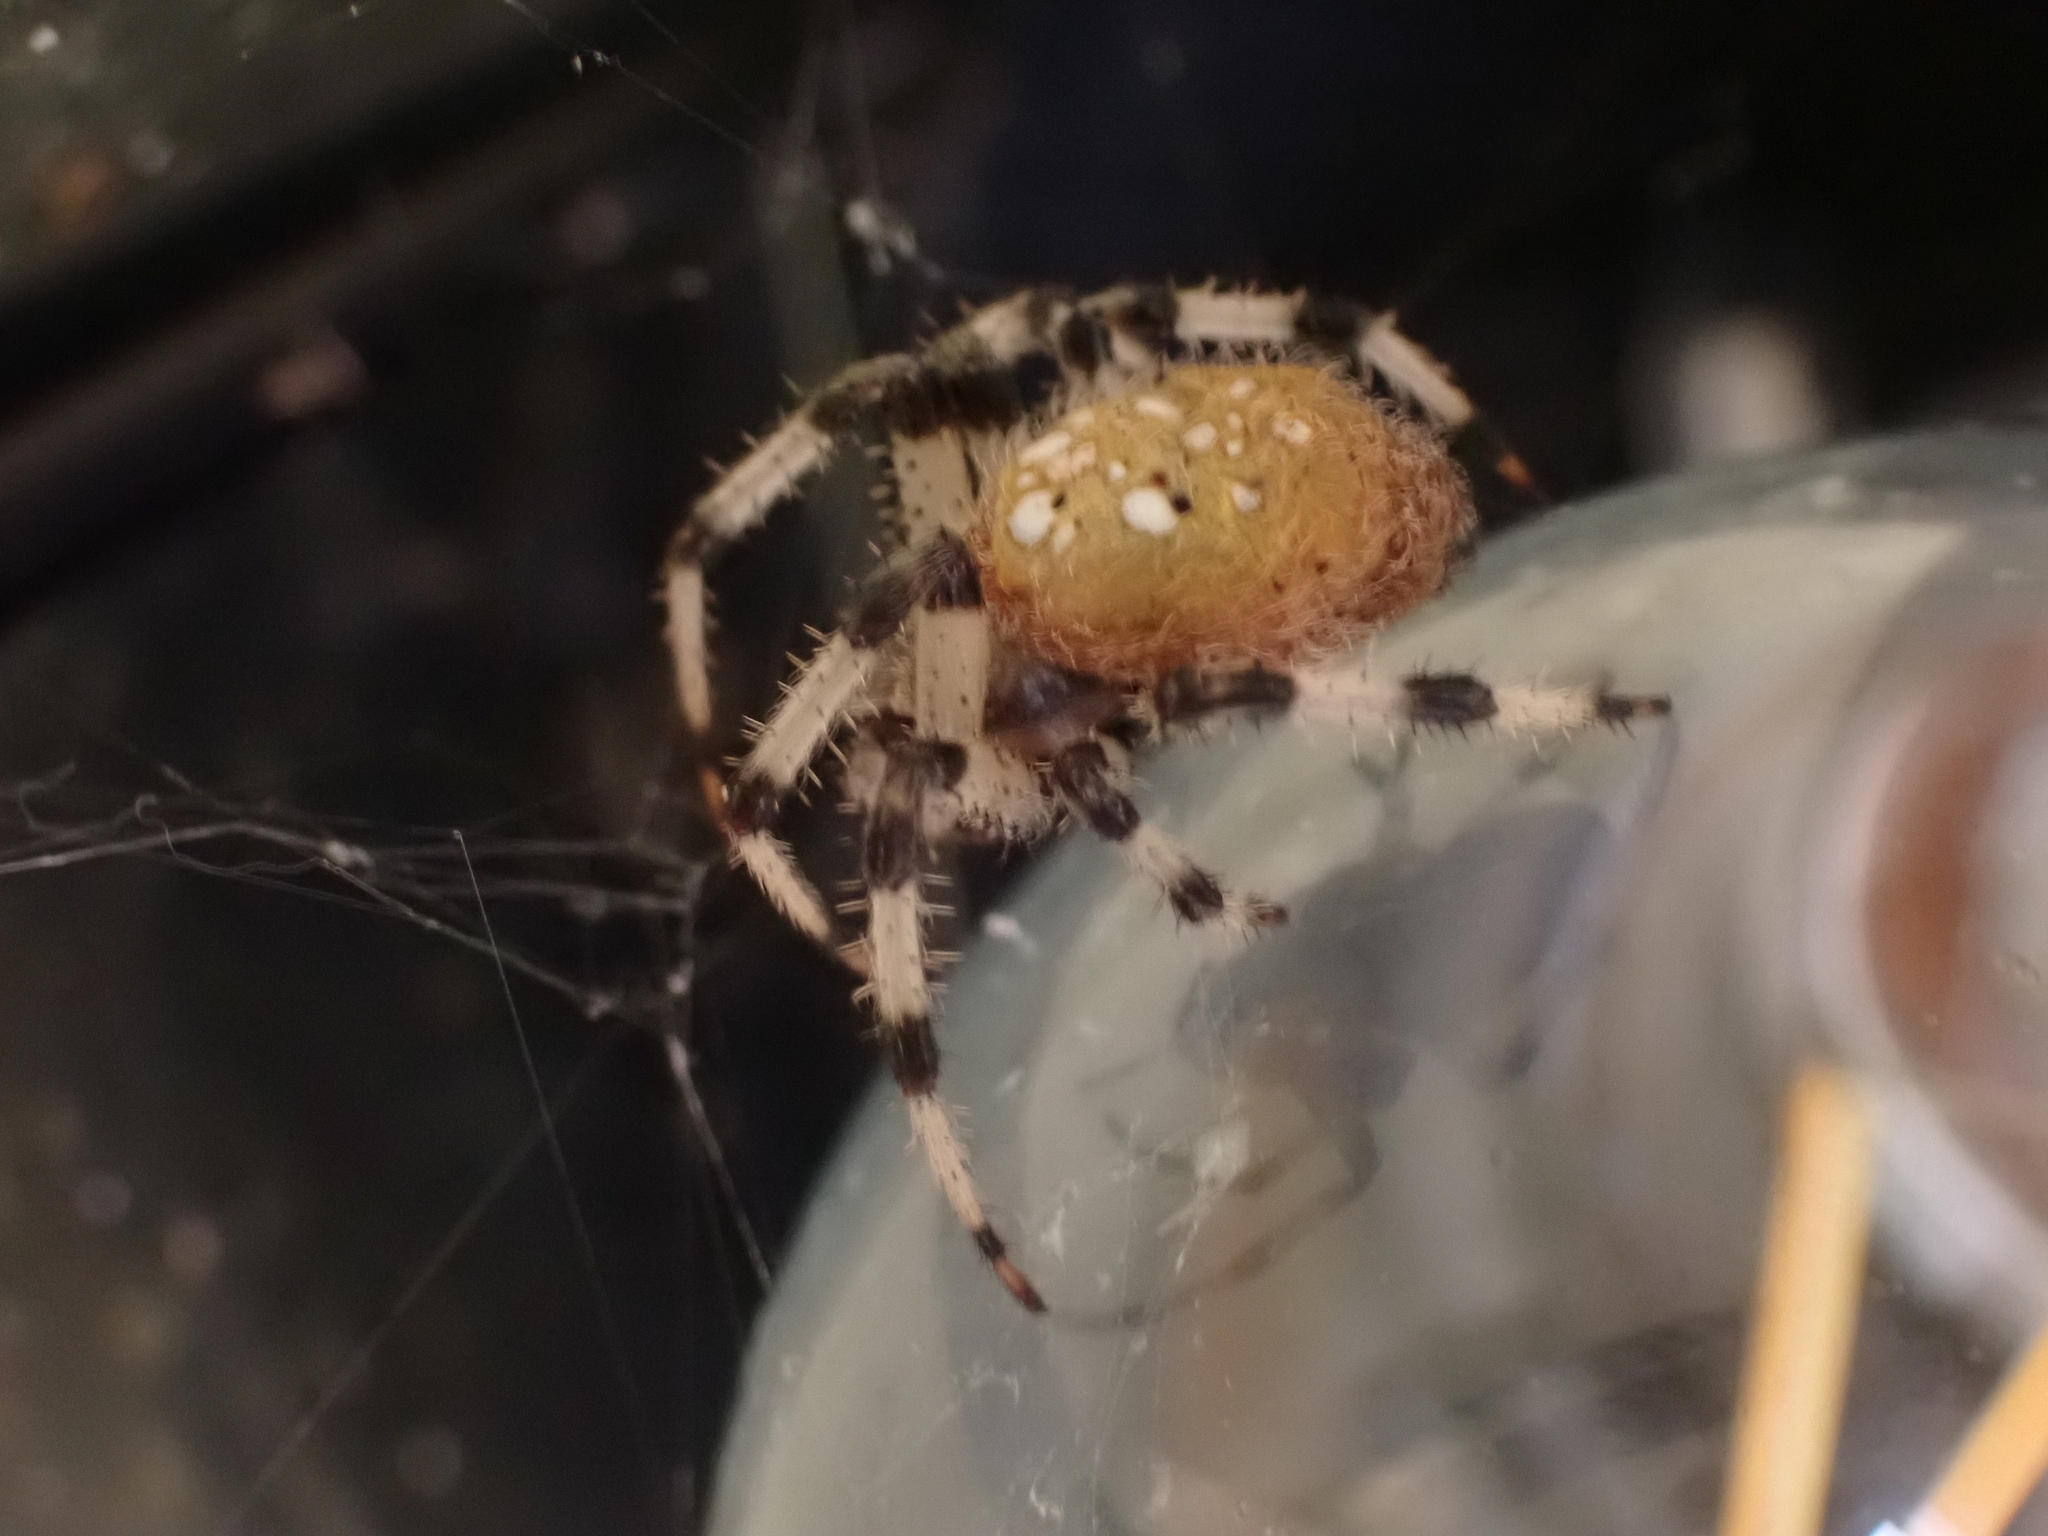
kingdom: Animalia
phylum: Arthropoda
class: Arachnida
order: Araneae
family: Araneidae
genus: Araneus
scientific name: Araneus trifolium
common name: Shamrock orbweaver
